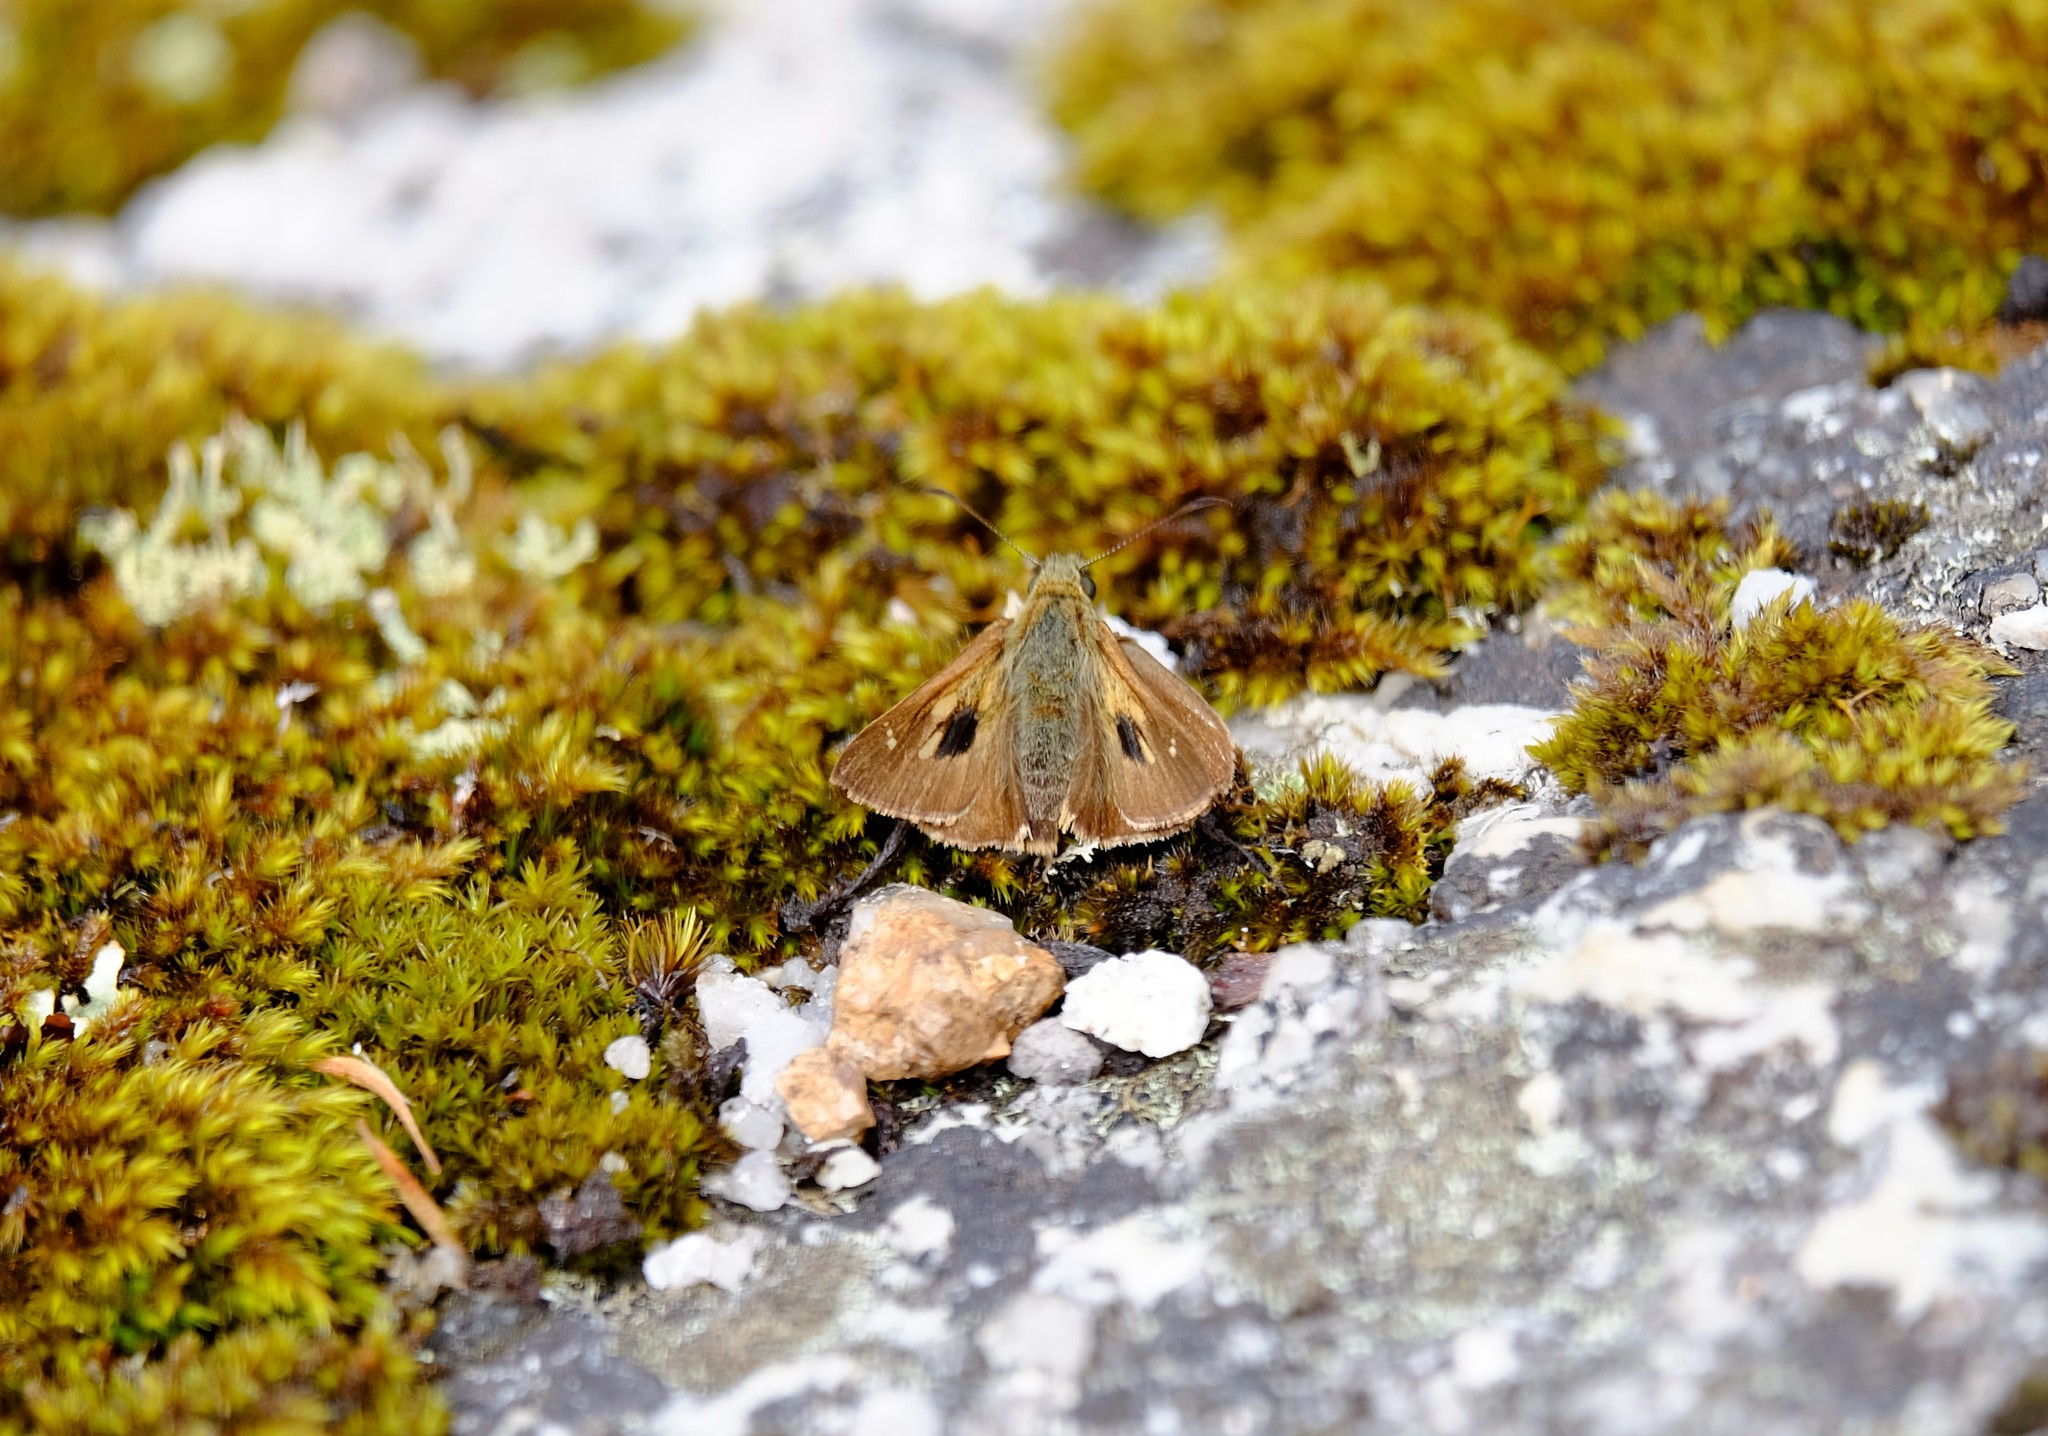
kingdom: Animalia
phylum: Arthropoda
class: Insecta
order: Lepidoptera
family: Hesperiidae
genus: Toxidia
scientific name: Toxidia
